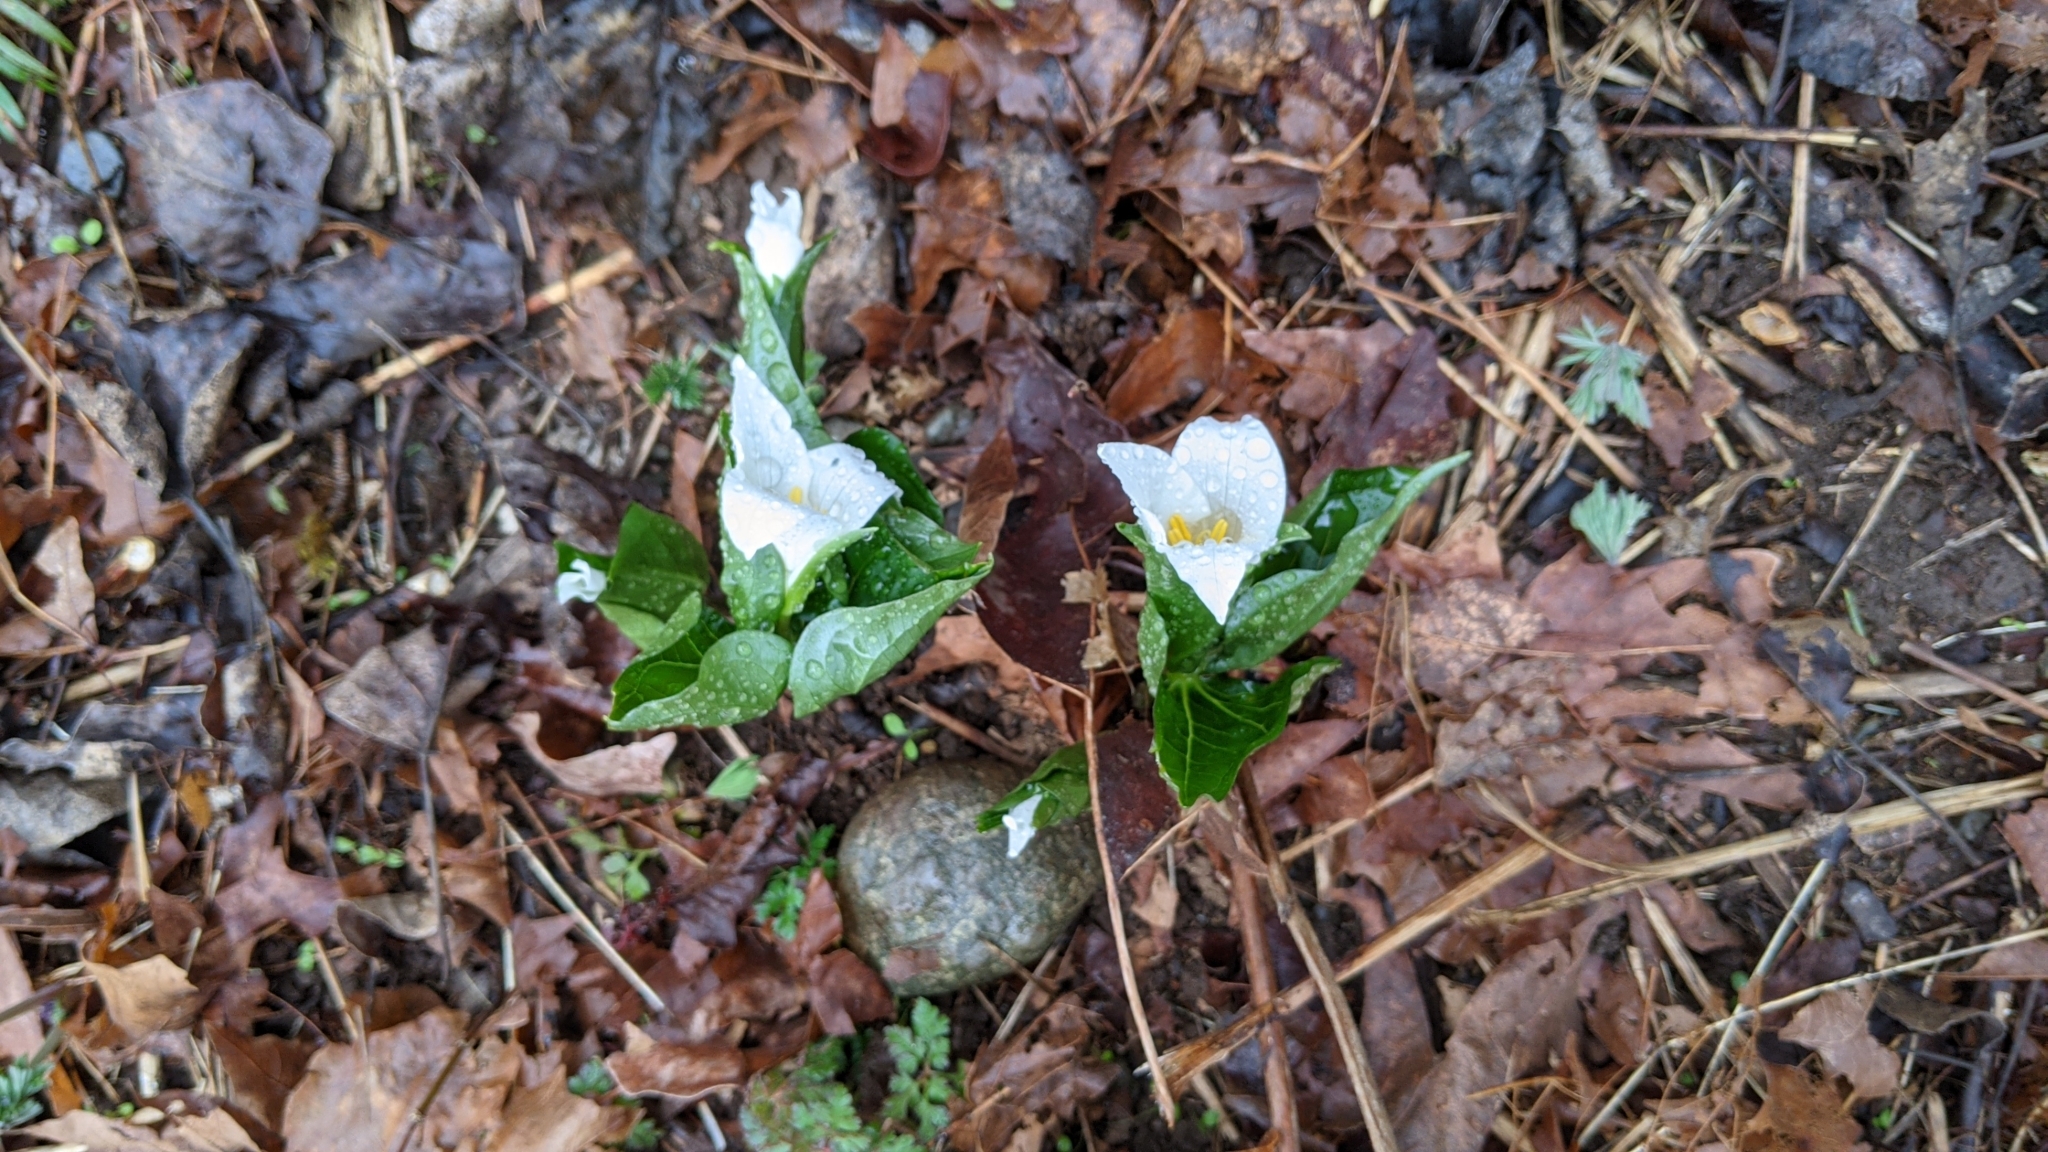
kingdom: Plantae
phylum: Tracheophyta
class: Liliopsida
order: Liliales
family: Melanthiaceae
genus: Trillium
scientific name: Trillium ovatum
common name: Pacific trillium
